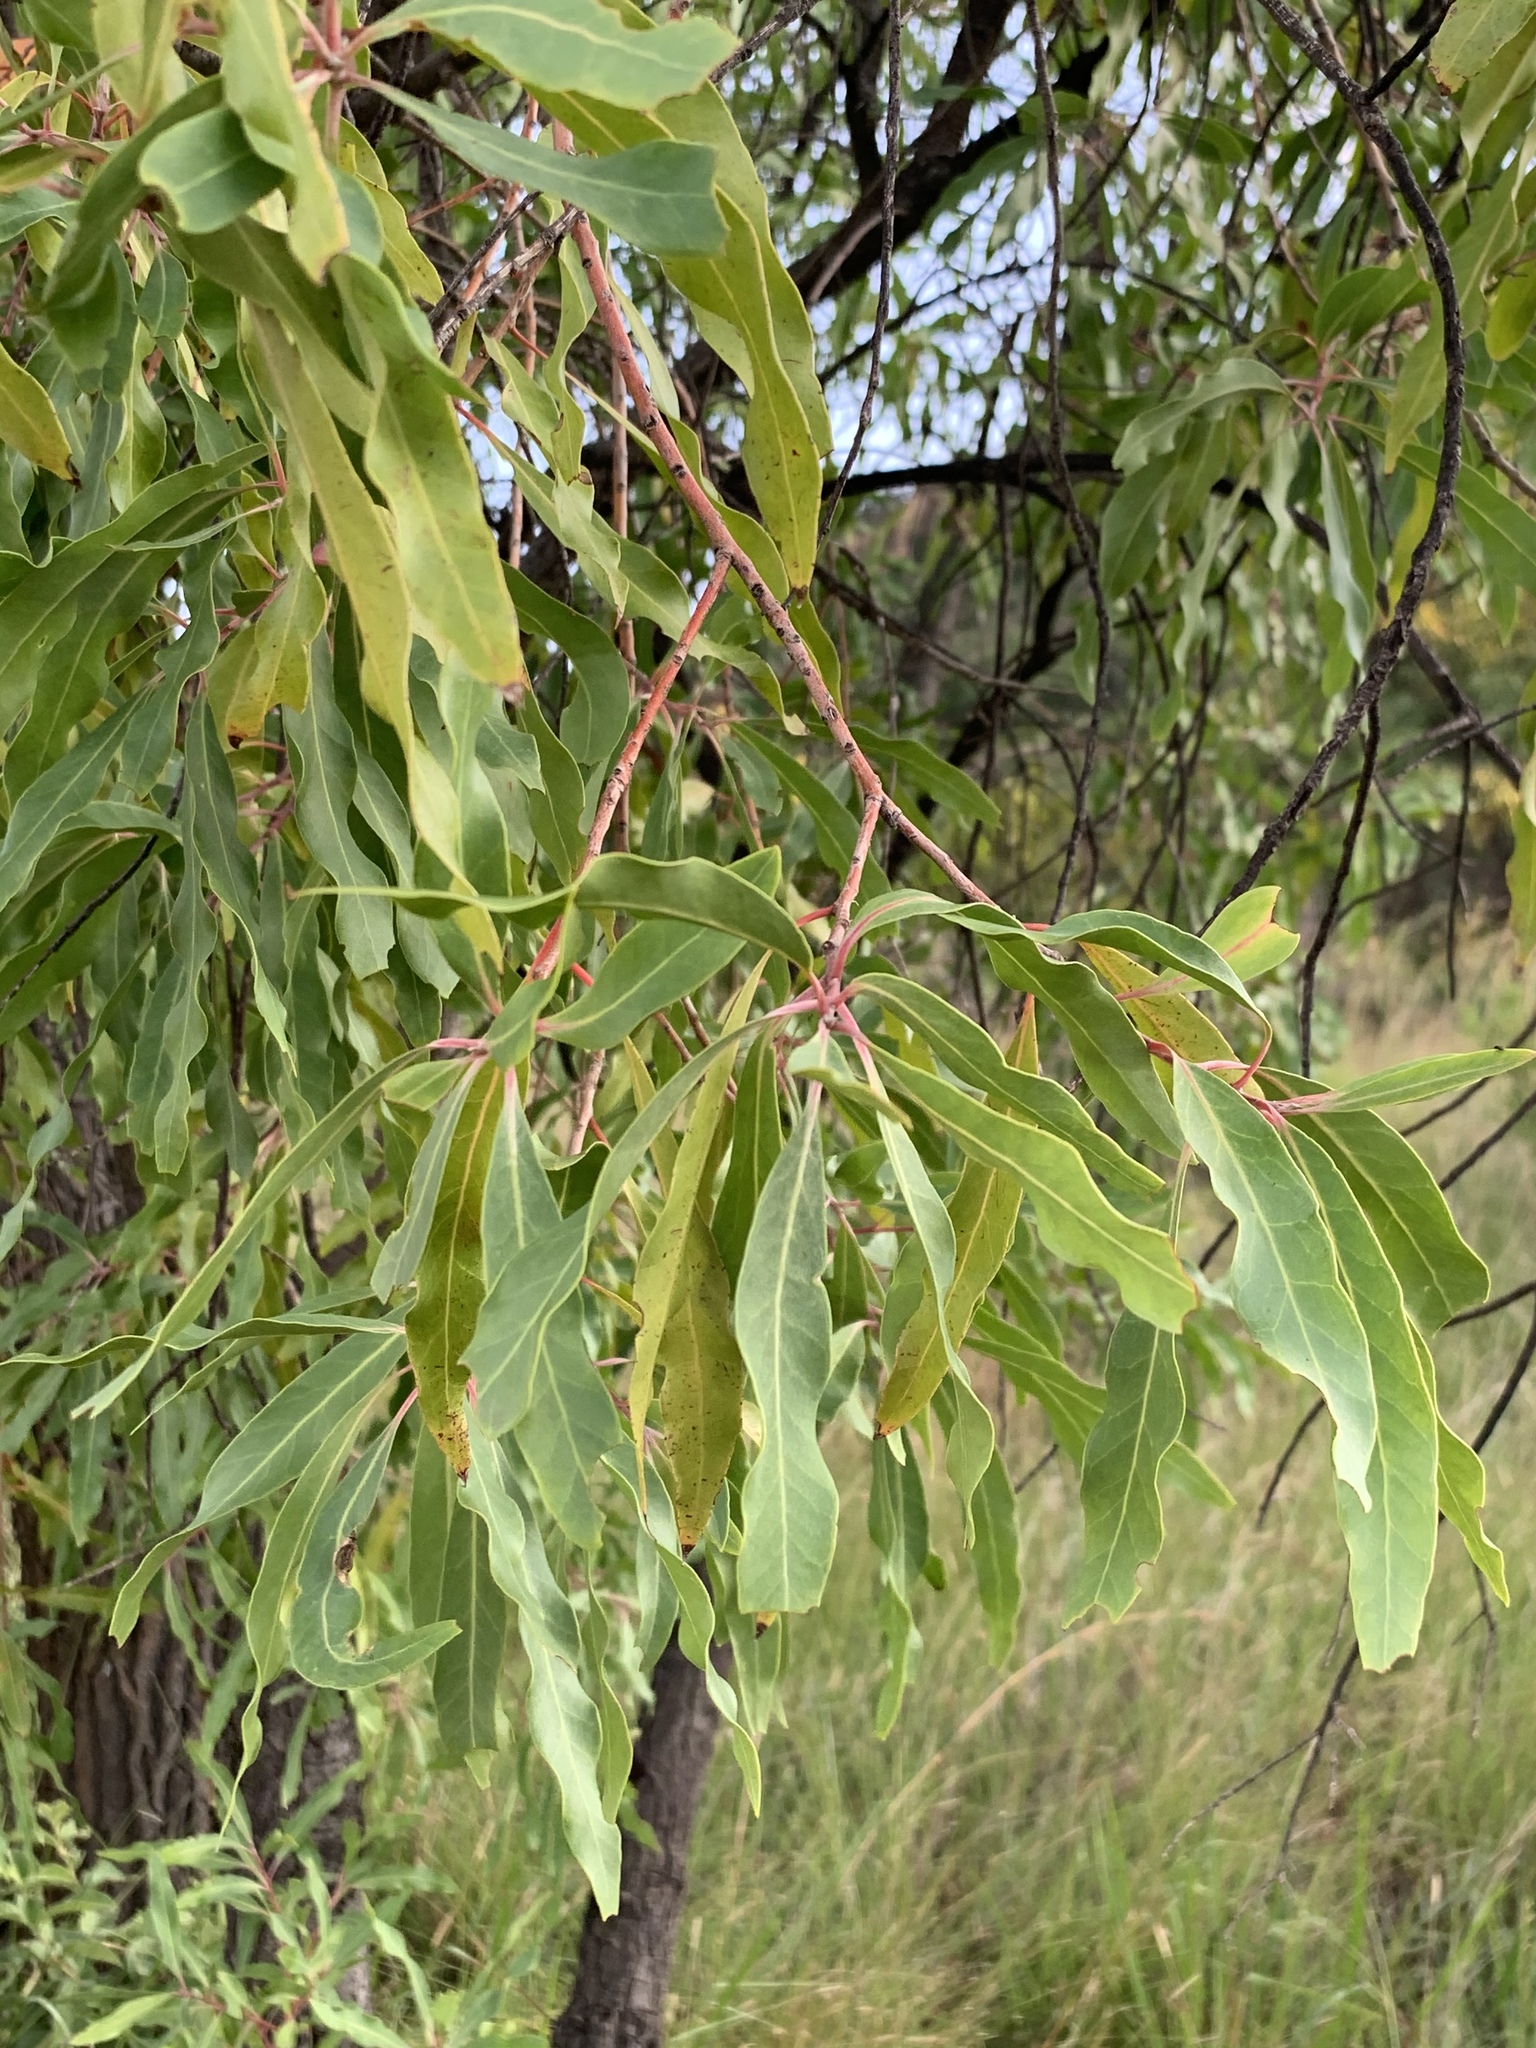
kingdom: Plantae
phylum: Tracheophyta
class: Magnoliopsida
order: Proteales
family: Proteaceae
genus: Faurea
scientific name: Faurea saligna
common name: African bean
